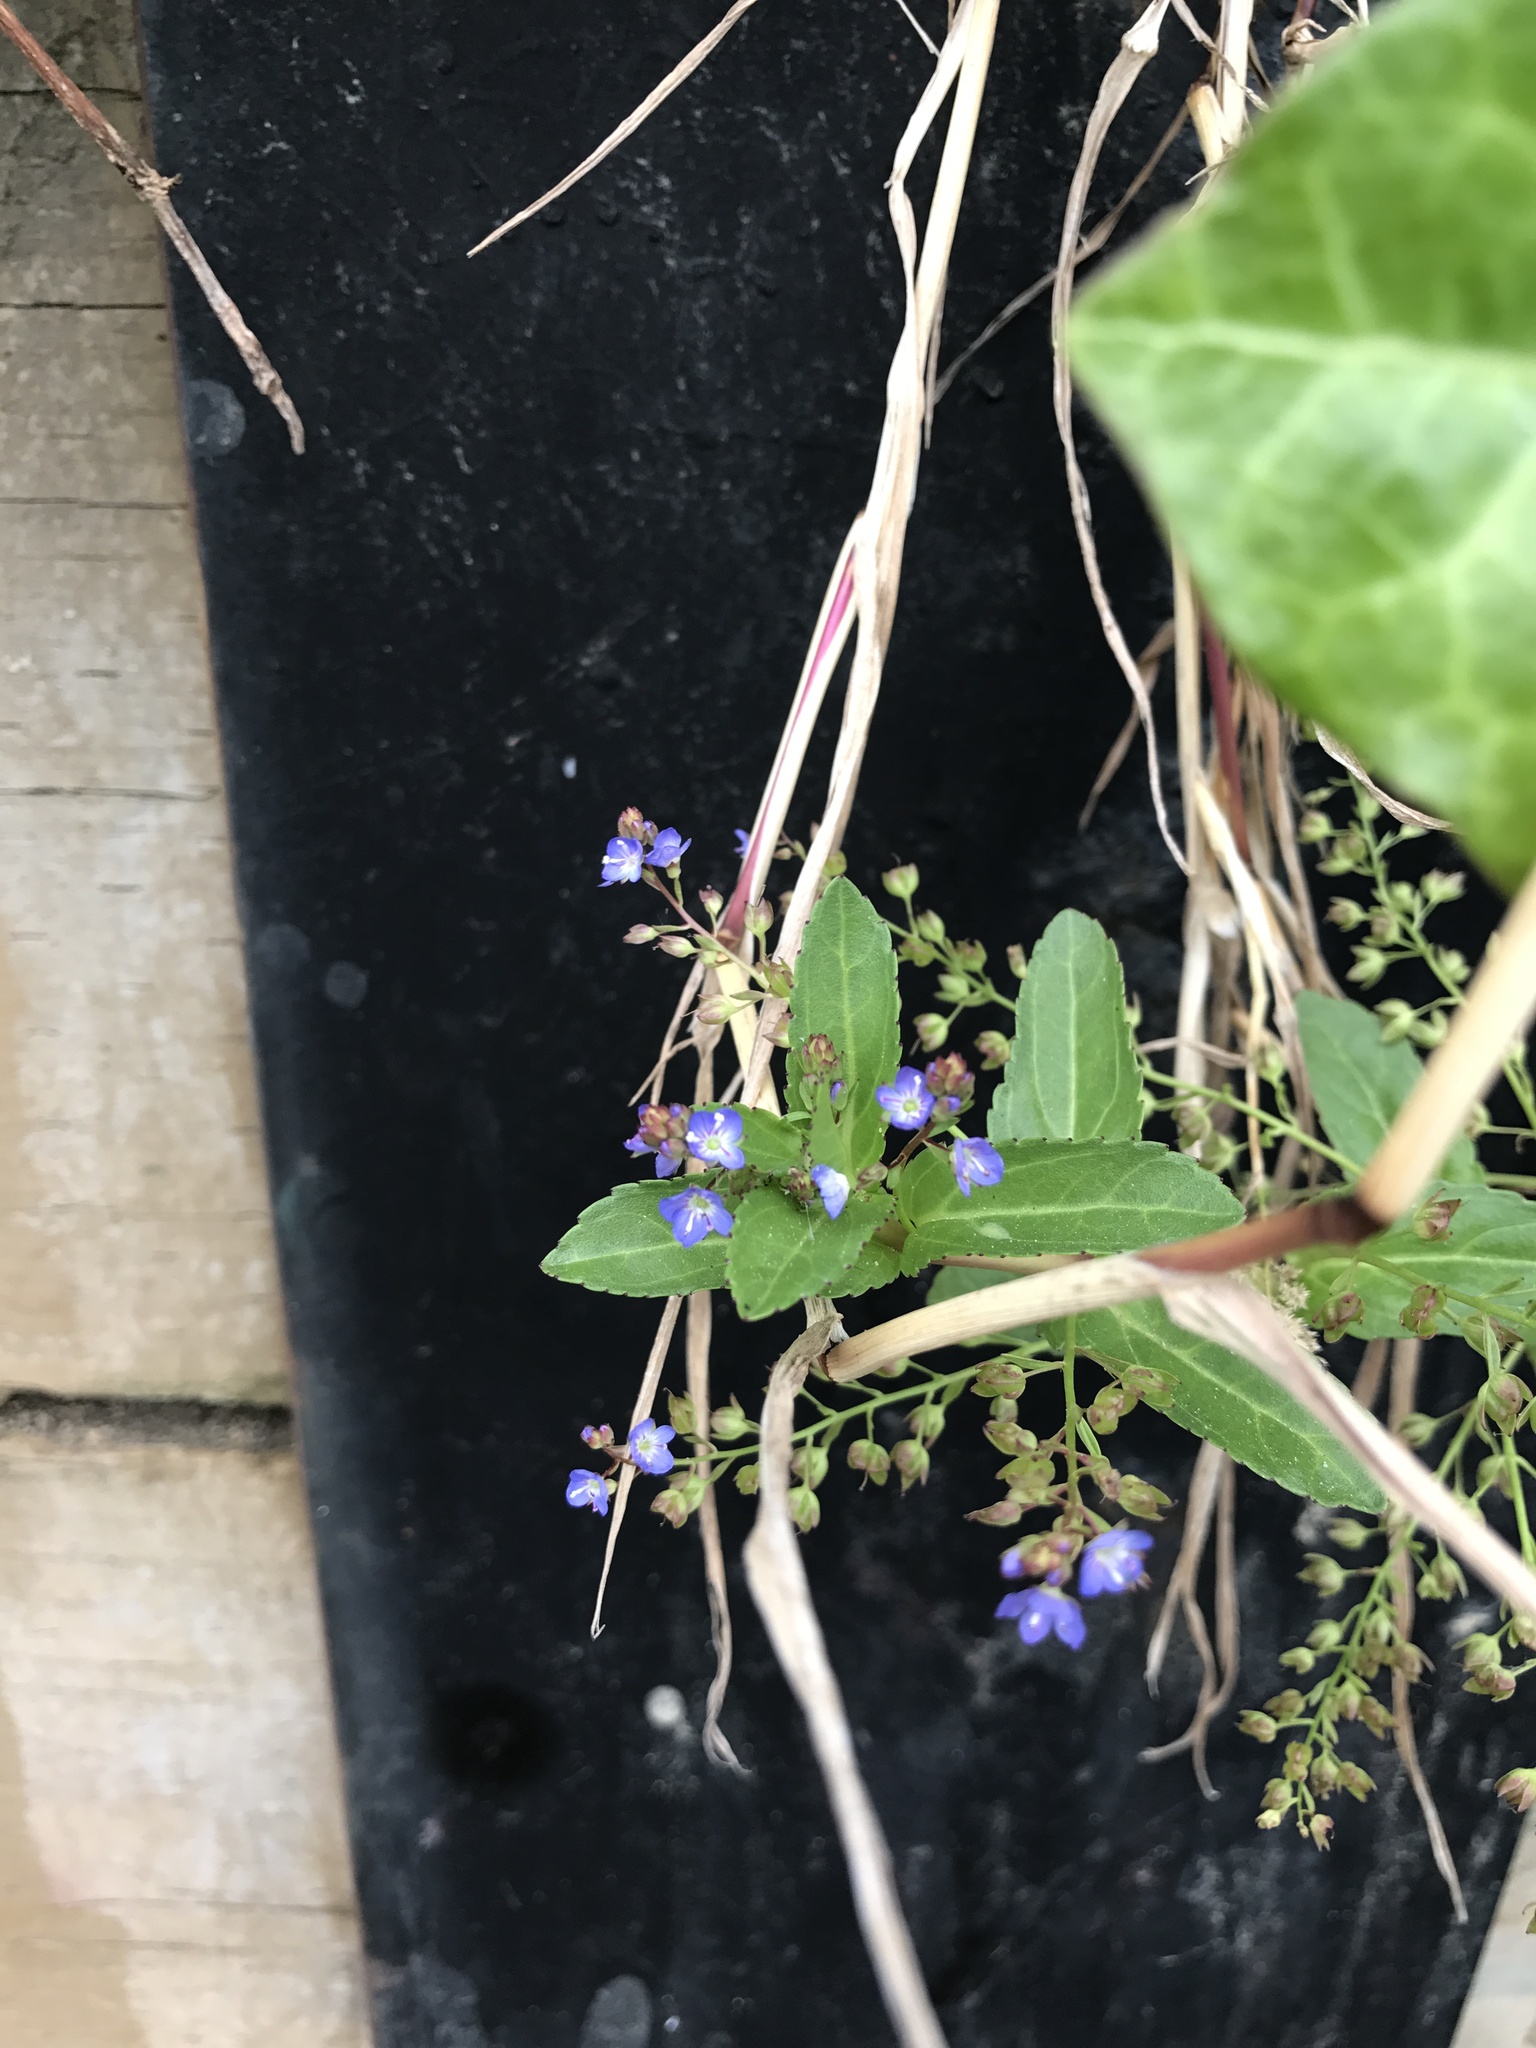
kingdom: Plantae
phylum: Tracheophyta
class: Magnoliopsida
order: Lamiales
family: Plantaginaceae
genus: Veronica
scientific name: Veronica americana
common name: American brooklime
